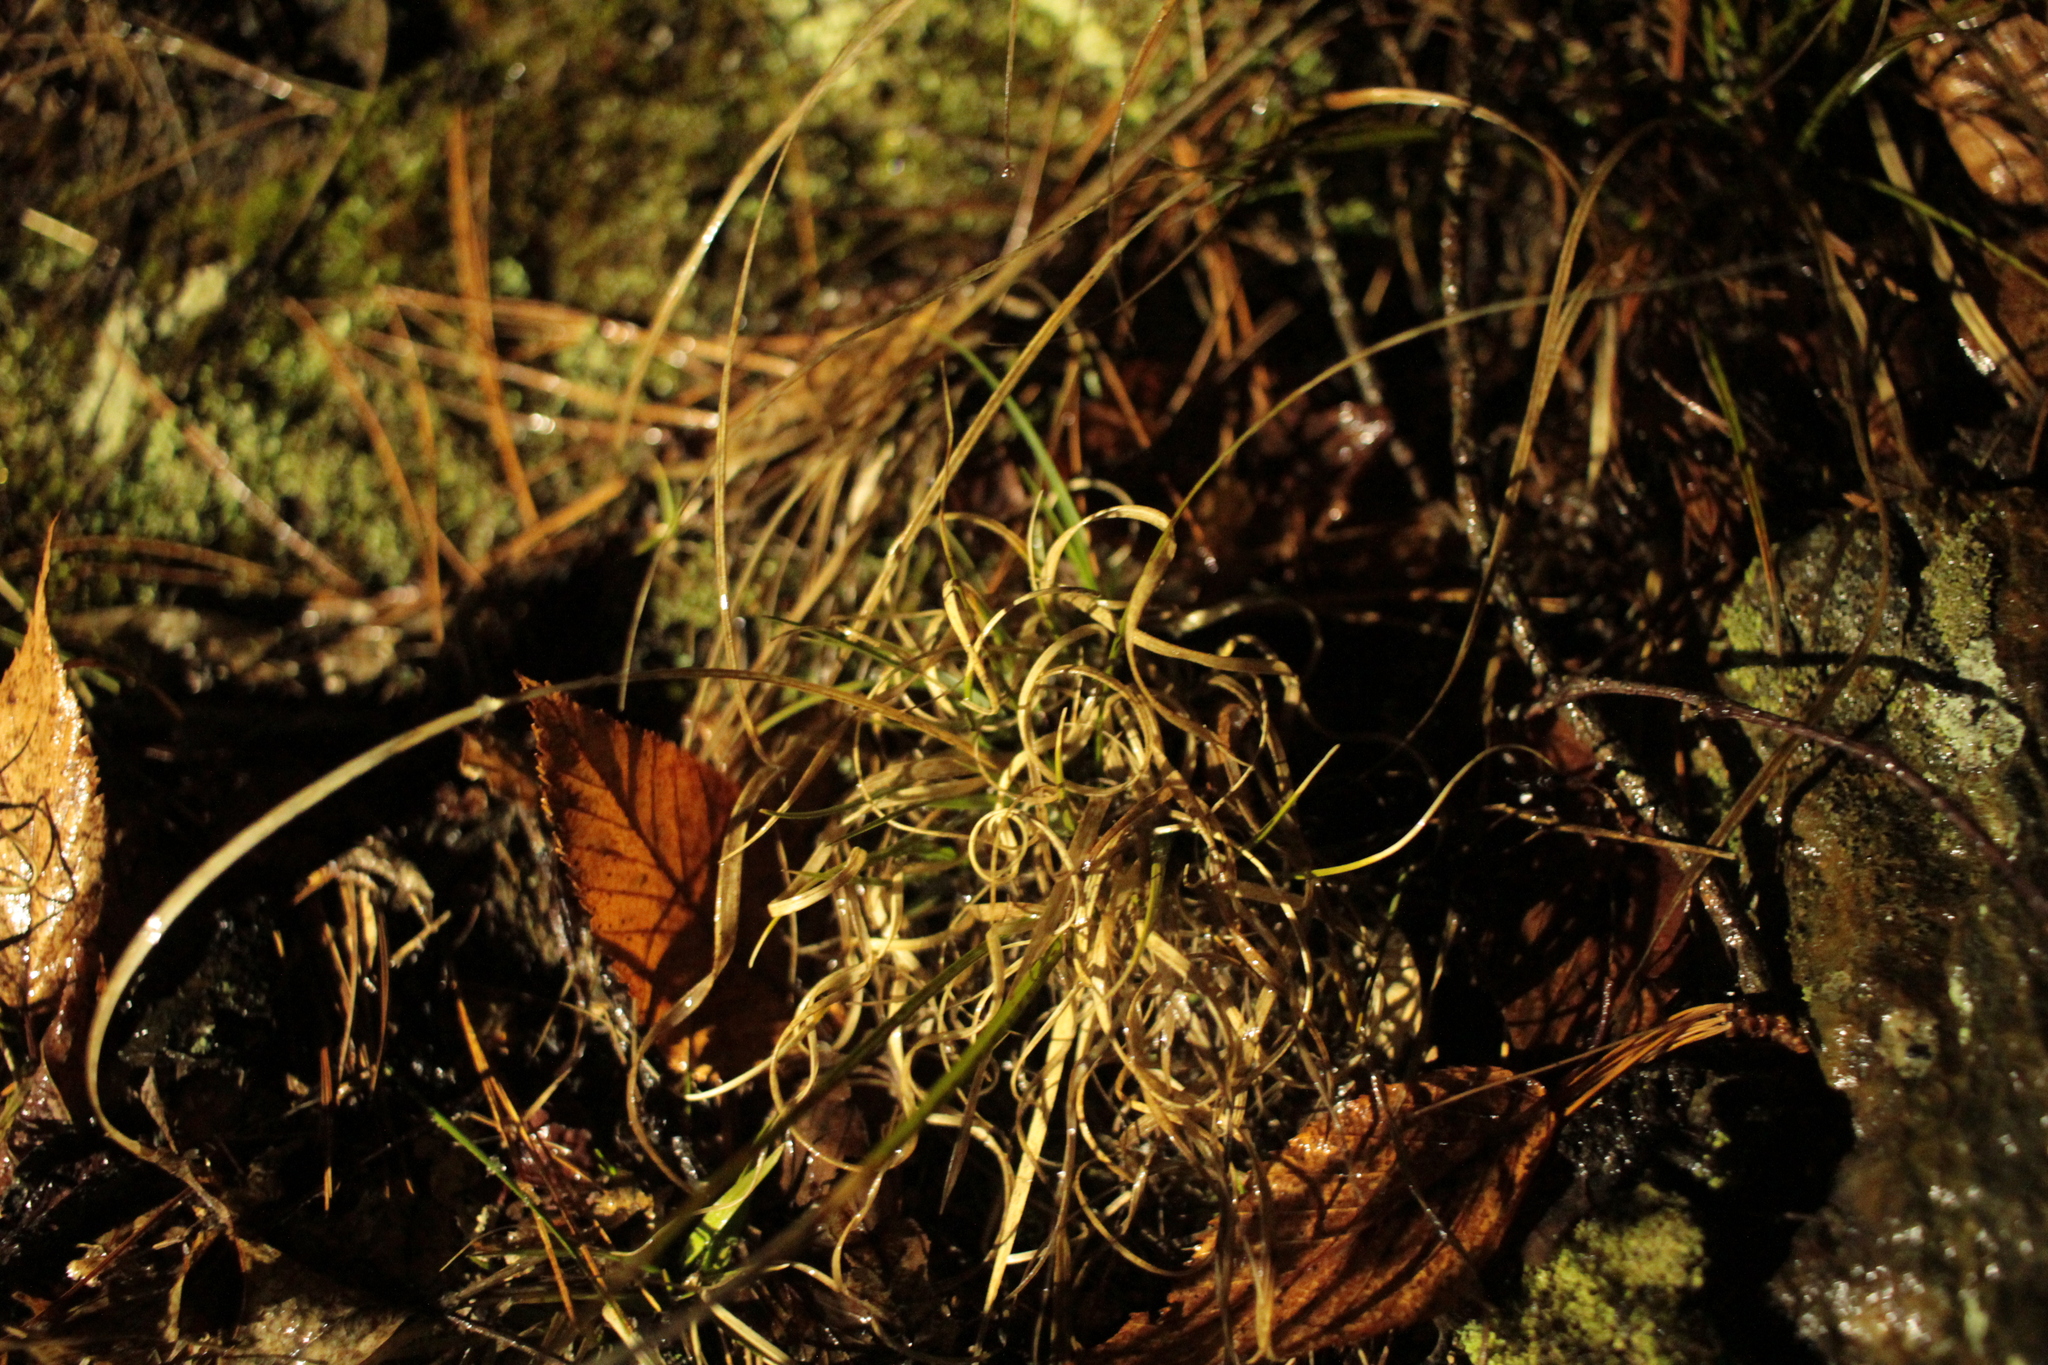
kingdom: Plantae
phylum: Tracheophyta
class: Liliopsida
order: Poales
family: Poaceae
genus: Danthonia
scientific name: Danthonia spicata
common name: Common wild oatgrass
